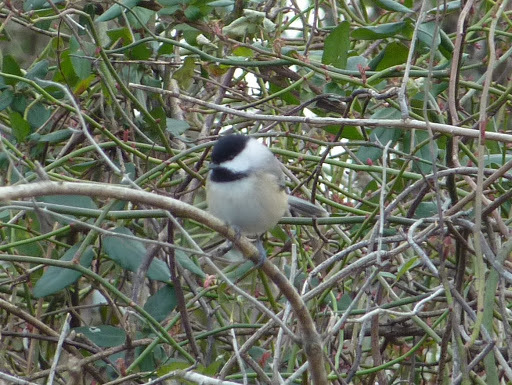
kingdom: Animalia
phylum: Chordata
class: Aves
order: Passeriformes
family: Paridae
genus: Poecile
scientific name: Poecile carolinensis
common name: Carolina chickadee
